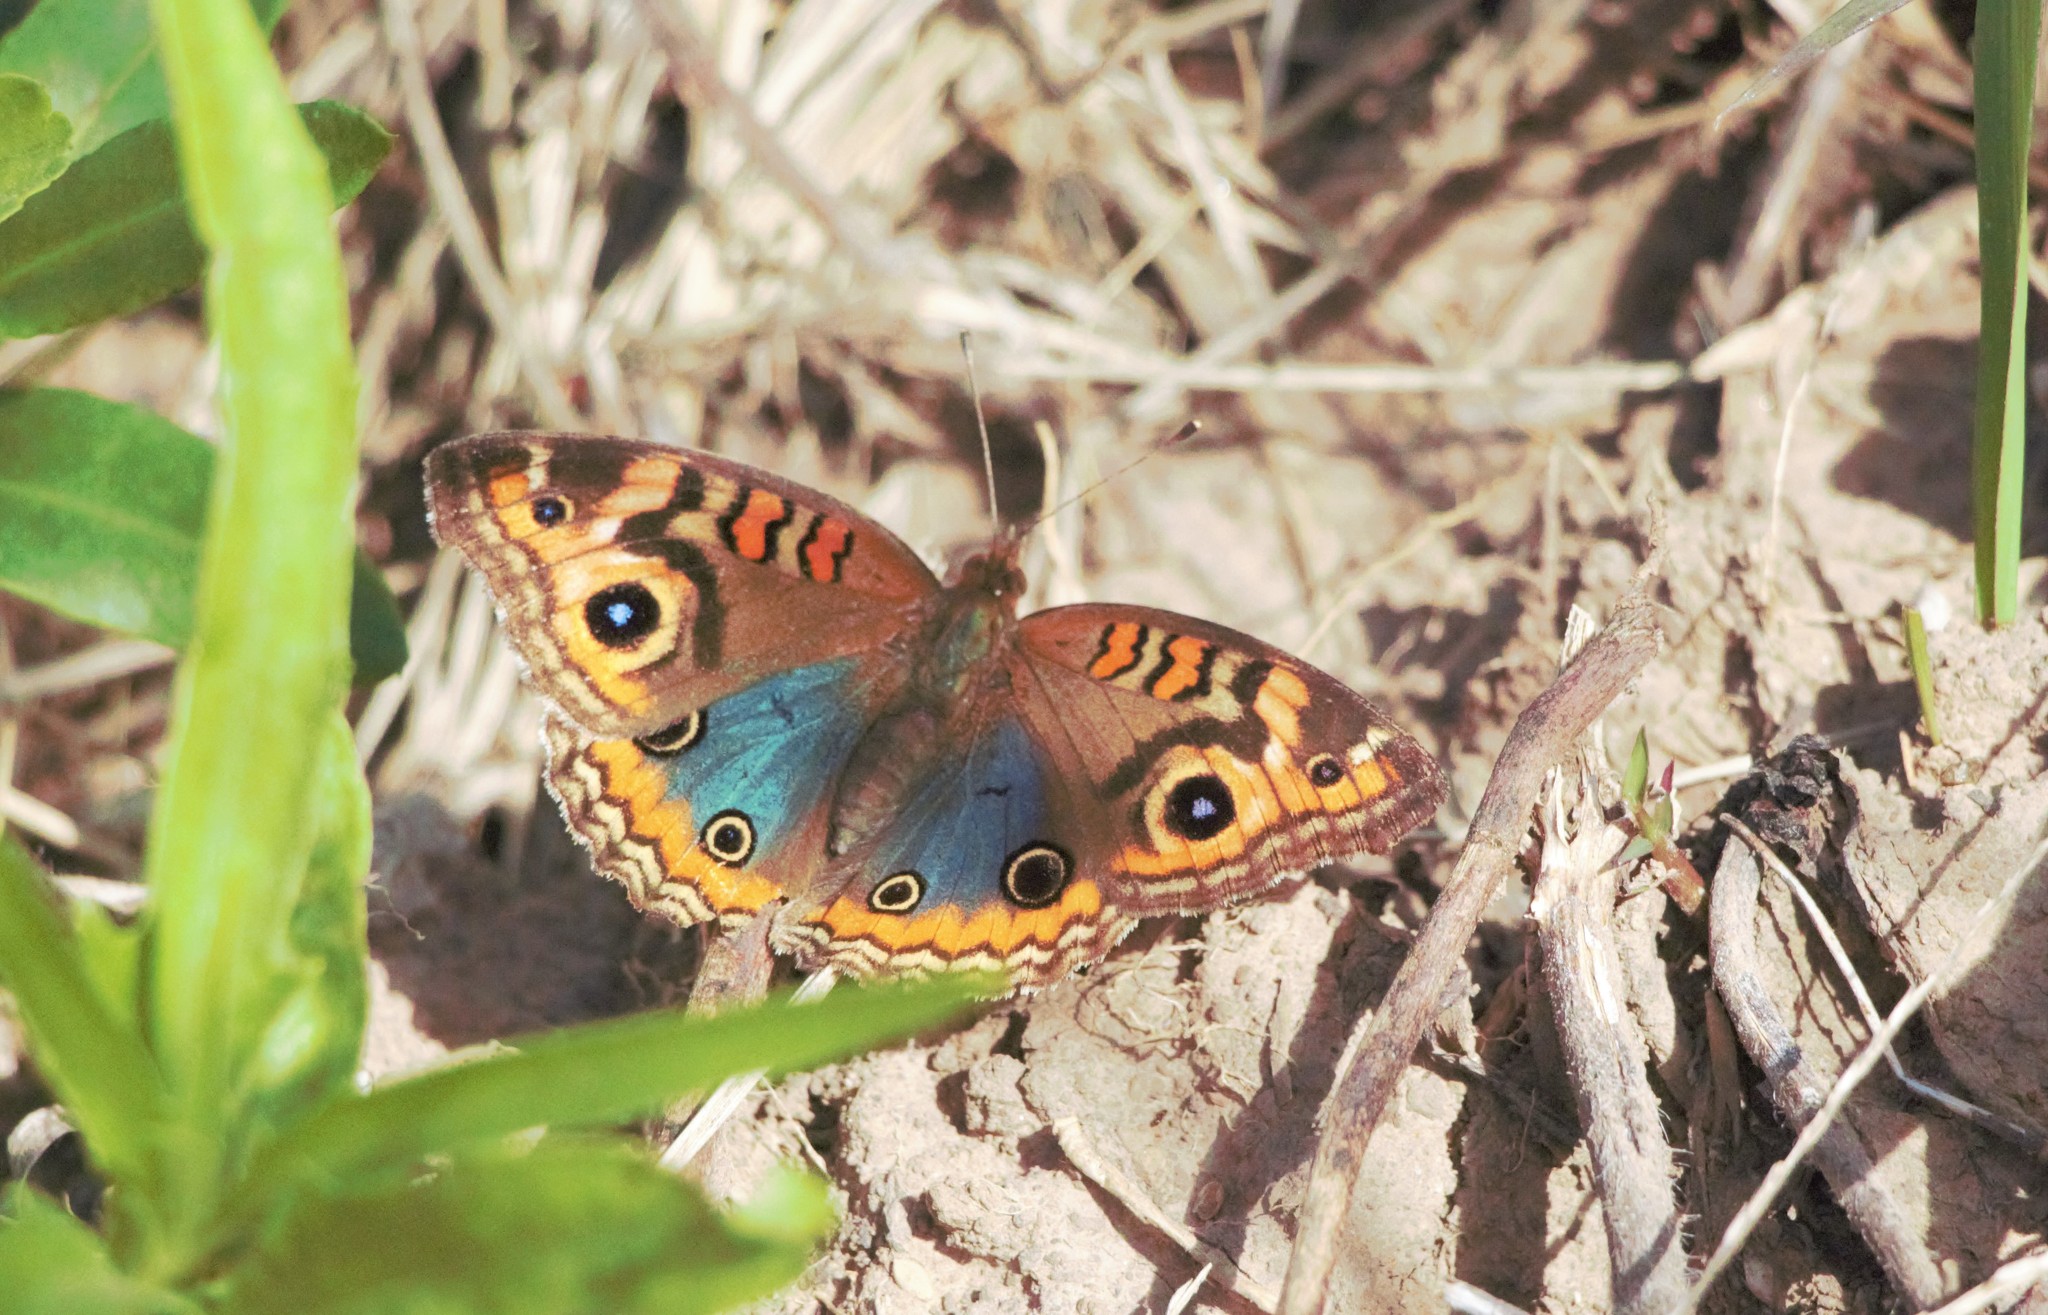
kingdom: Animalia
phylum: Arthropoda
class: Insecta
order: Lepidoptera
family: Nymphalidae
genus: Junonia
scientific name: Junonia lavinia
